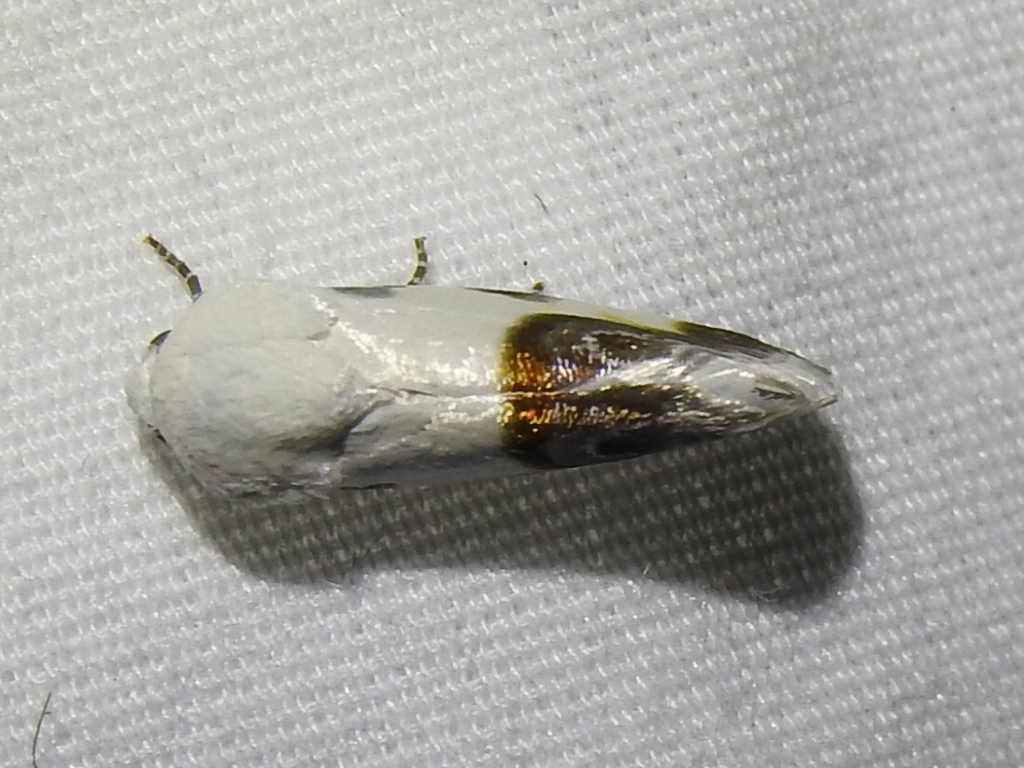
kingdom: Animalia
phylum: Arthropoda
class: Insecta
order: Lepidoptera
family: Noctuidae
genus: Acontia
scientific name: Acontia cretata
